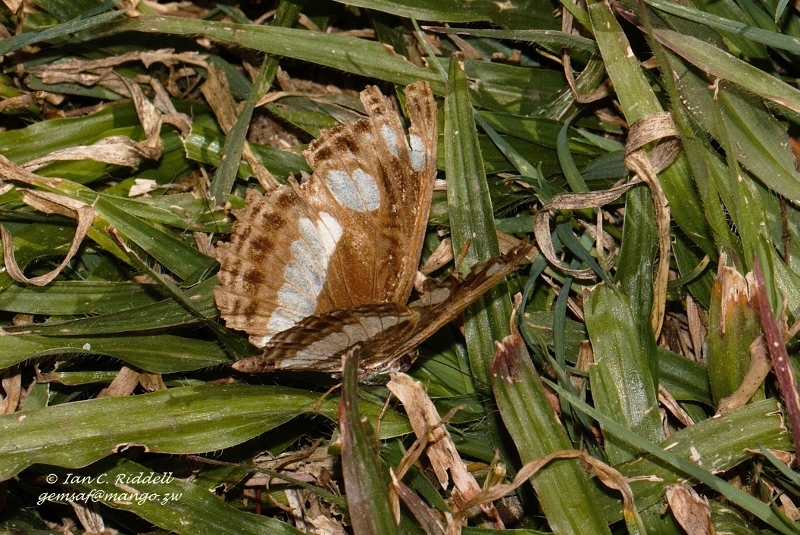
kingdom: Animalia
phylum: Arthropoda
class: Insecta
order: Lepidoptera
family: Nymphalidae
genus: Neptis
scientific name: Neptis saclava
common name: Small spotted sailor
